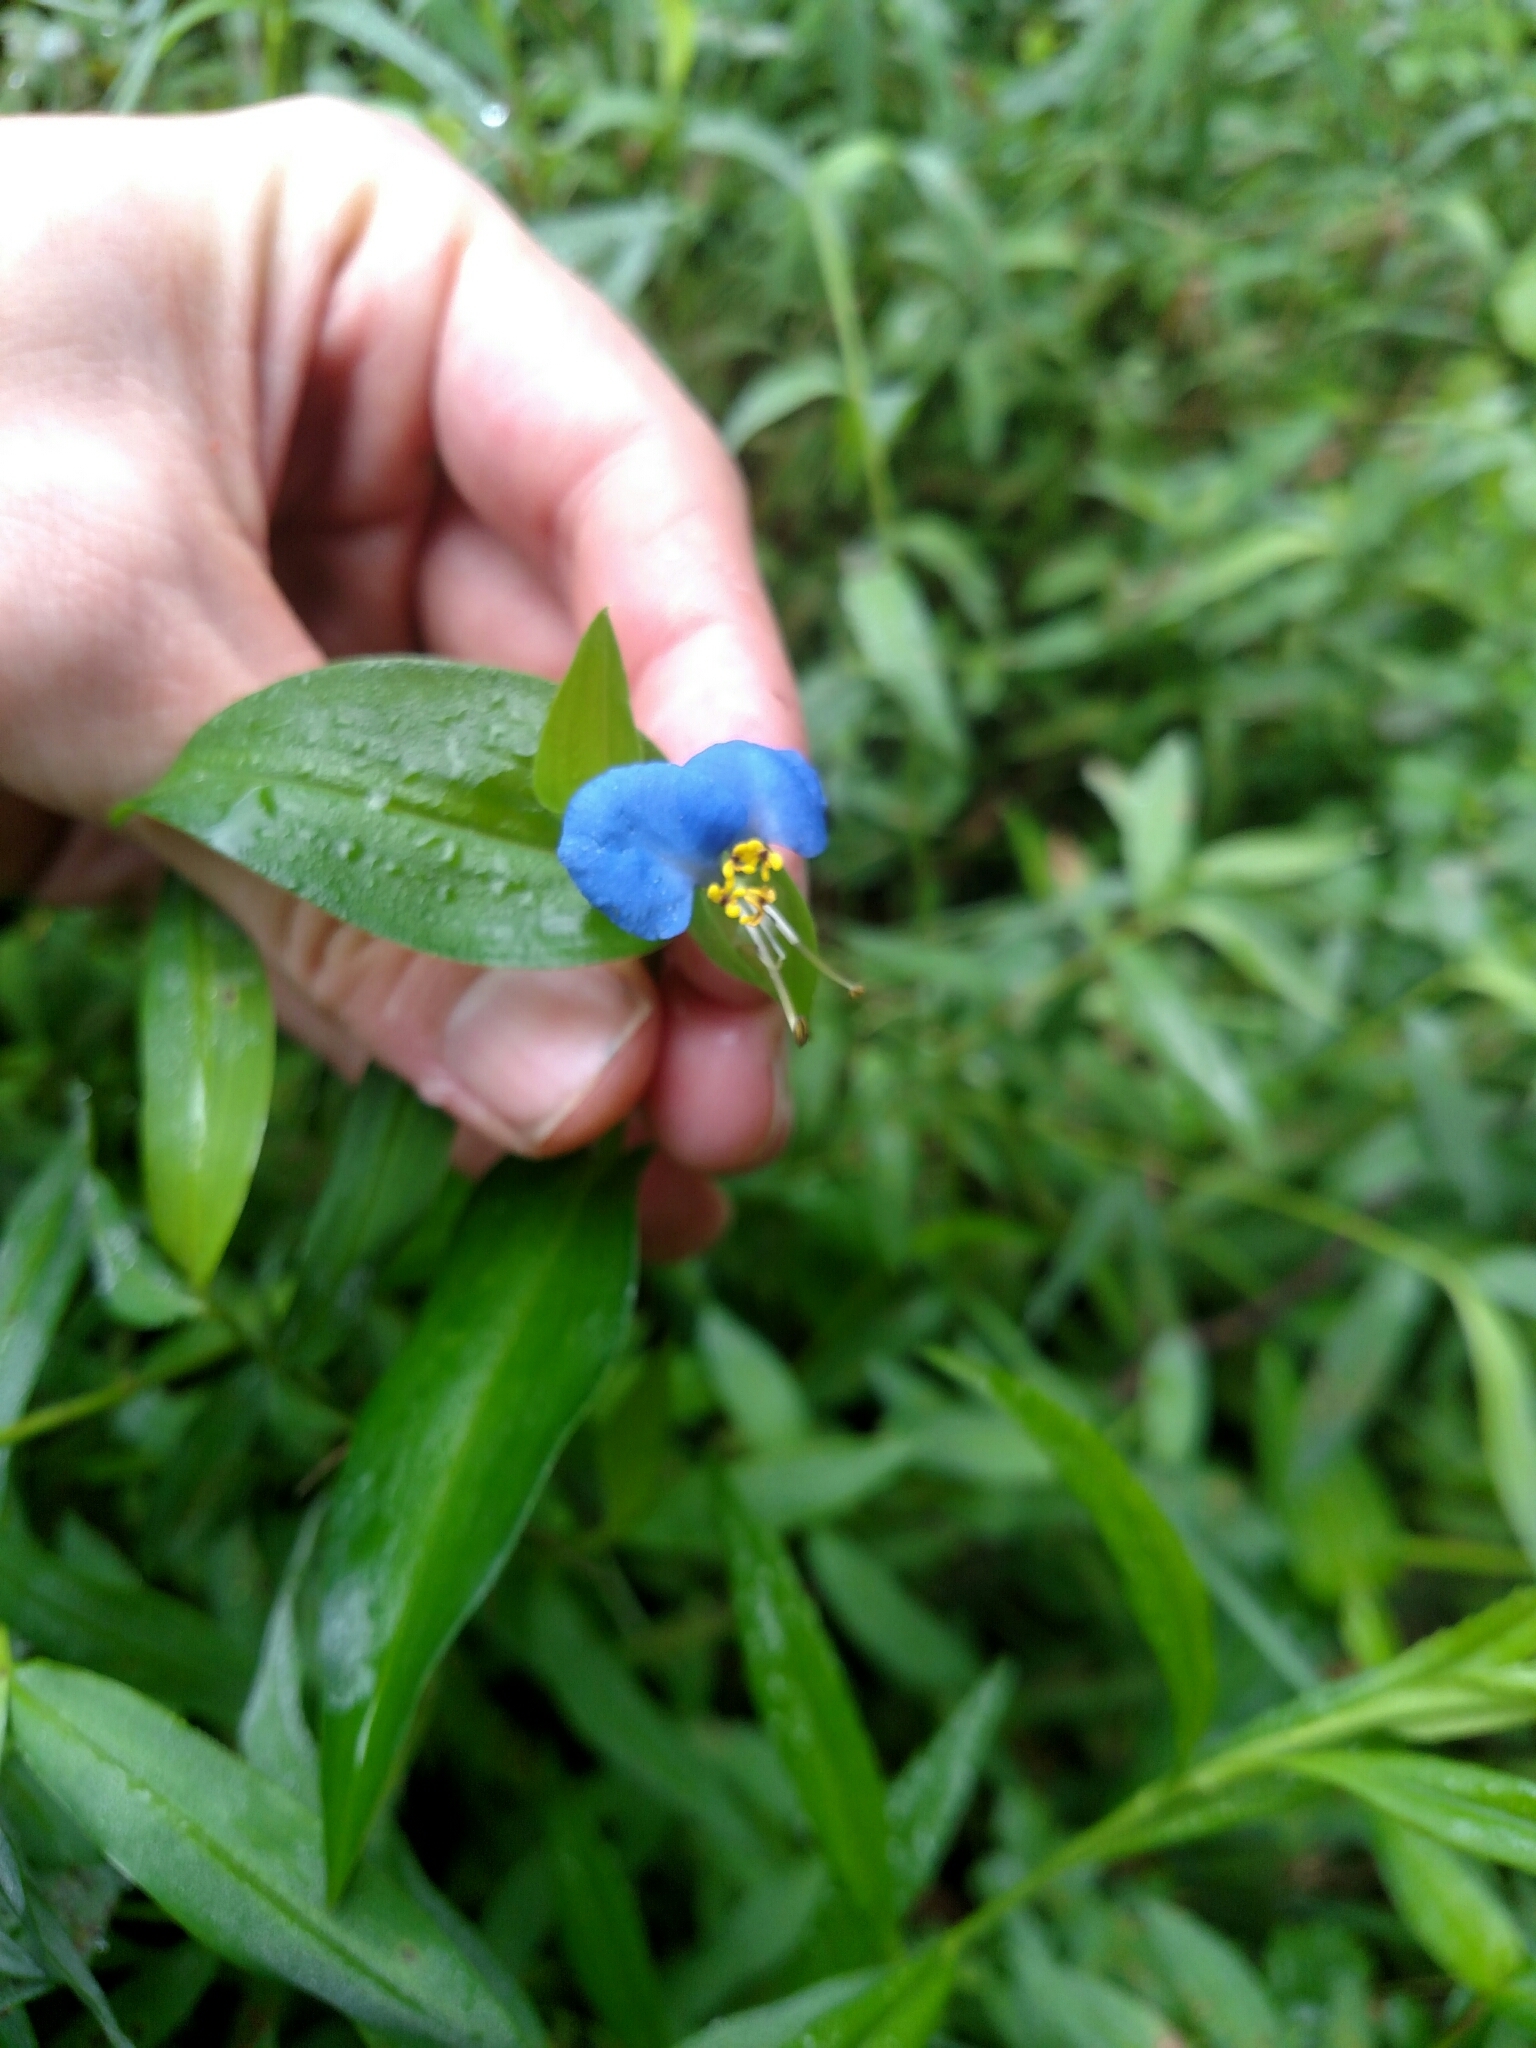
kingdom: Plantae
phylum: Tracheophyta
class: Liliopsida
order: Commelinales
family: Commelinaceae
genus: Commelina
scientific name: Commelina communis
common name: Asiatic dayflower
